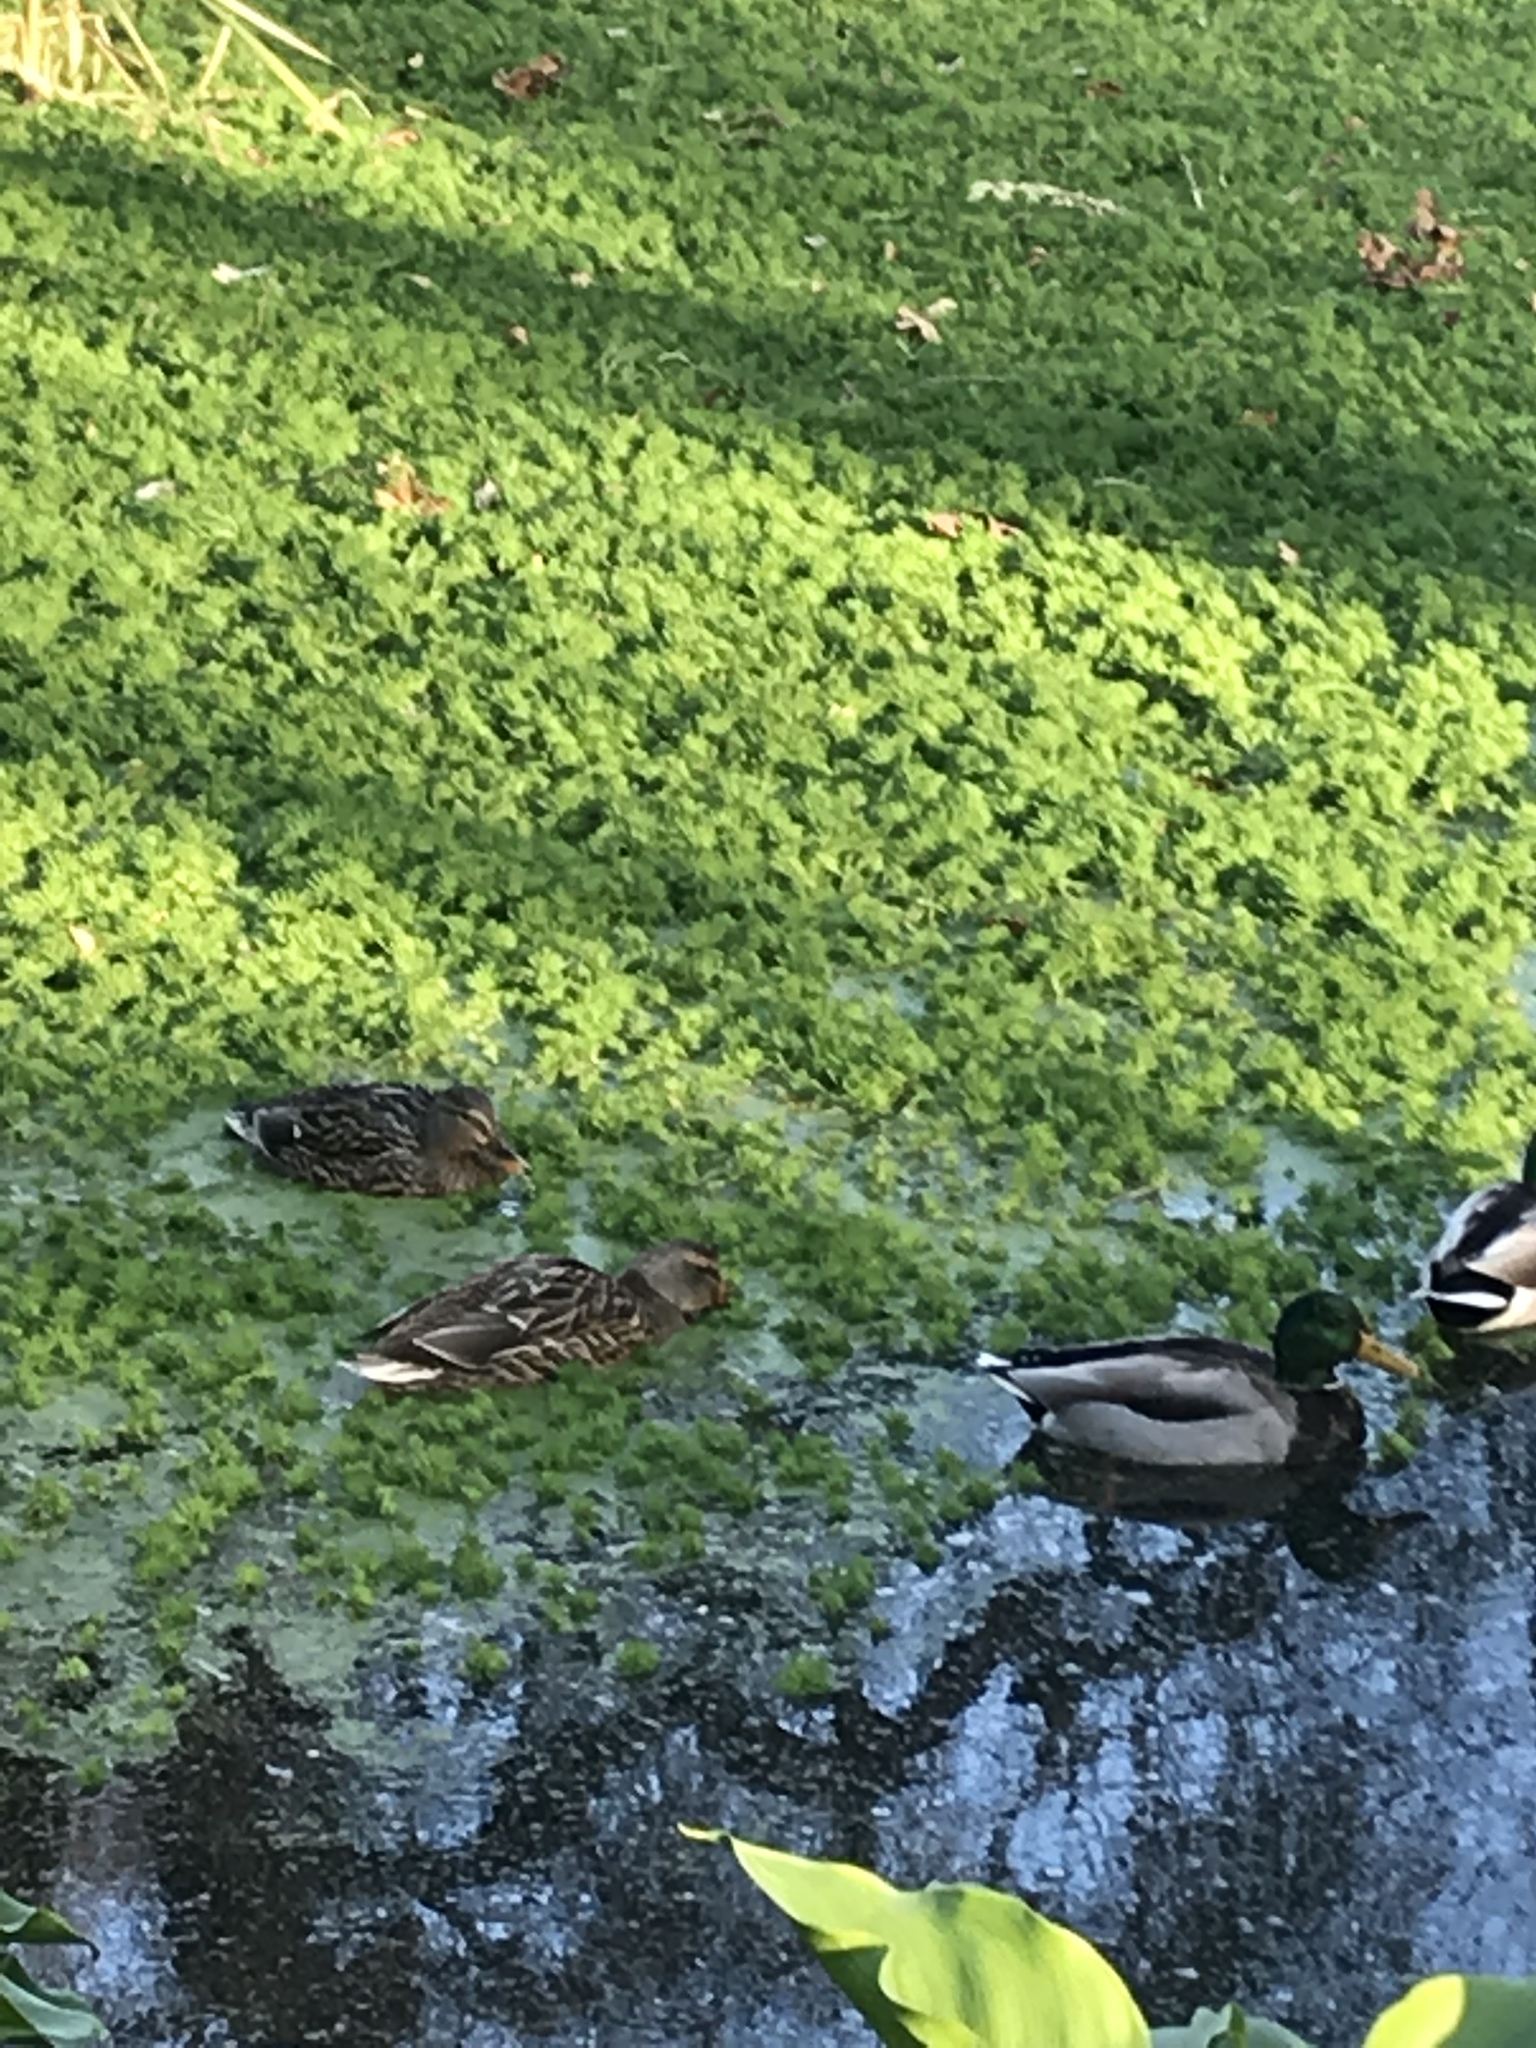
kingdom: Animalia
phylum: Chordata
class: Aves
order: Anseriformes
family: Anatidae
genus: Anas
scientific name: Anas platyrhynchos
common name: Mallard
